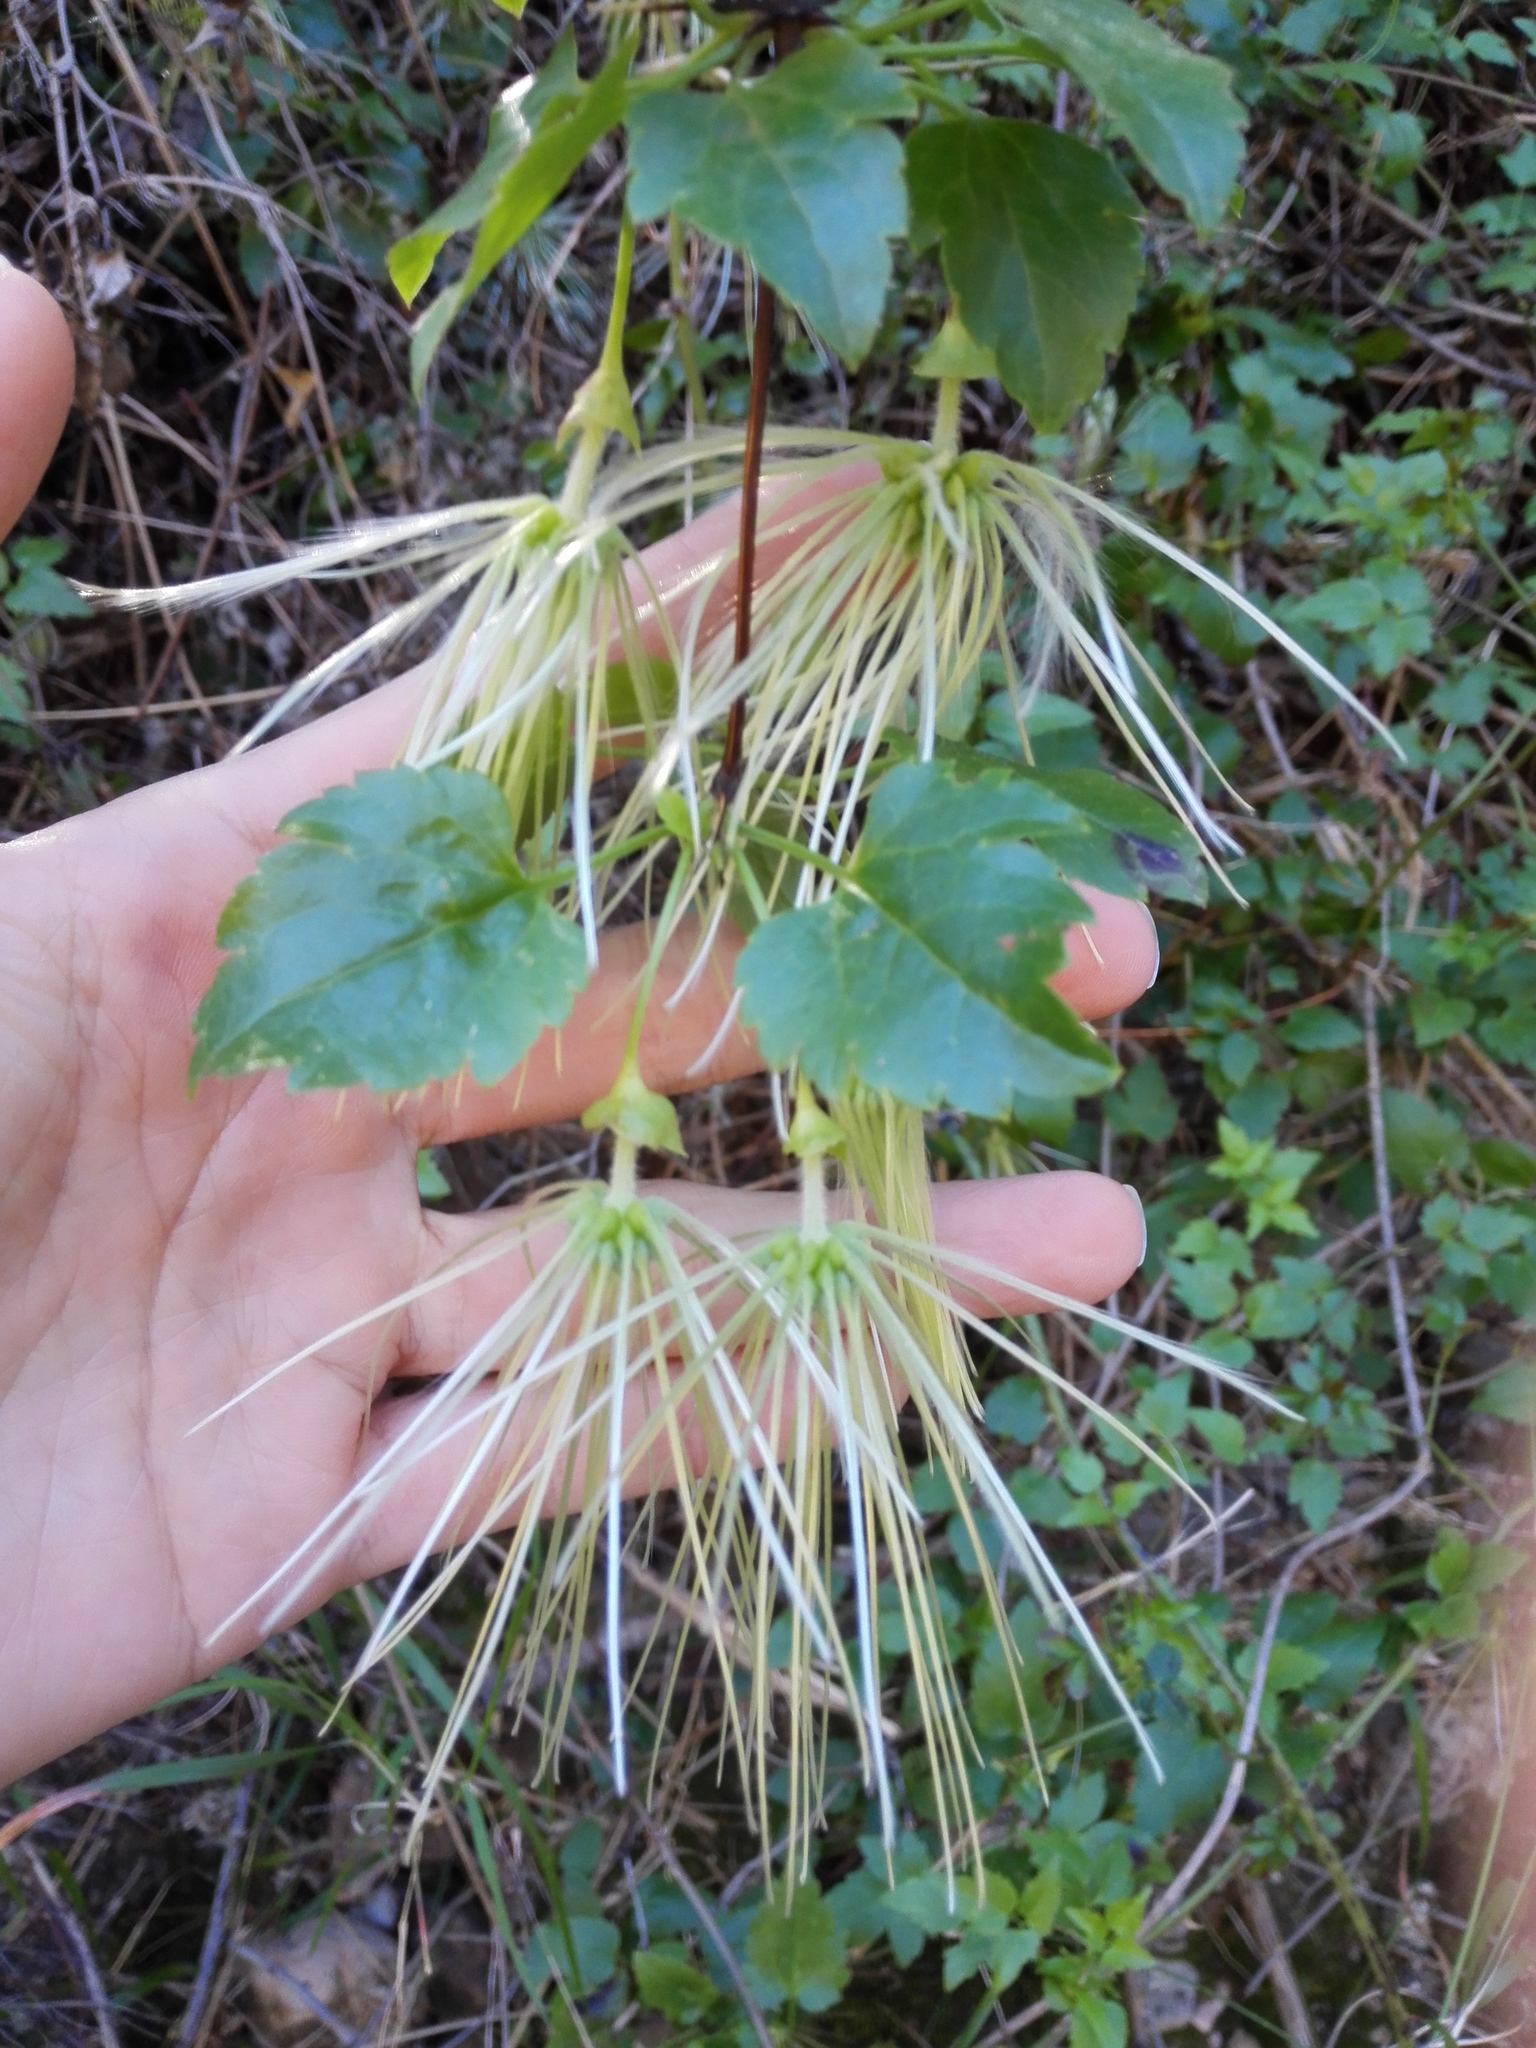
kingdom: Plantae
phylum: Tracheophyta
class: Magnoliopsida
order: Ranunculales
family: Ranunculaceae
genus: Clematis
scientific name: Clematis cirrhosa
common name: Early virgin's-bower
